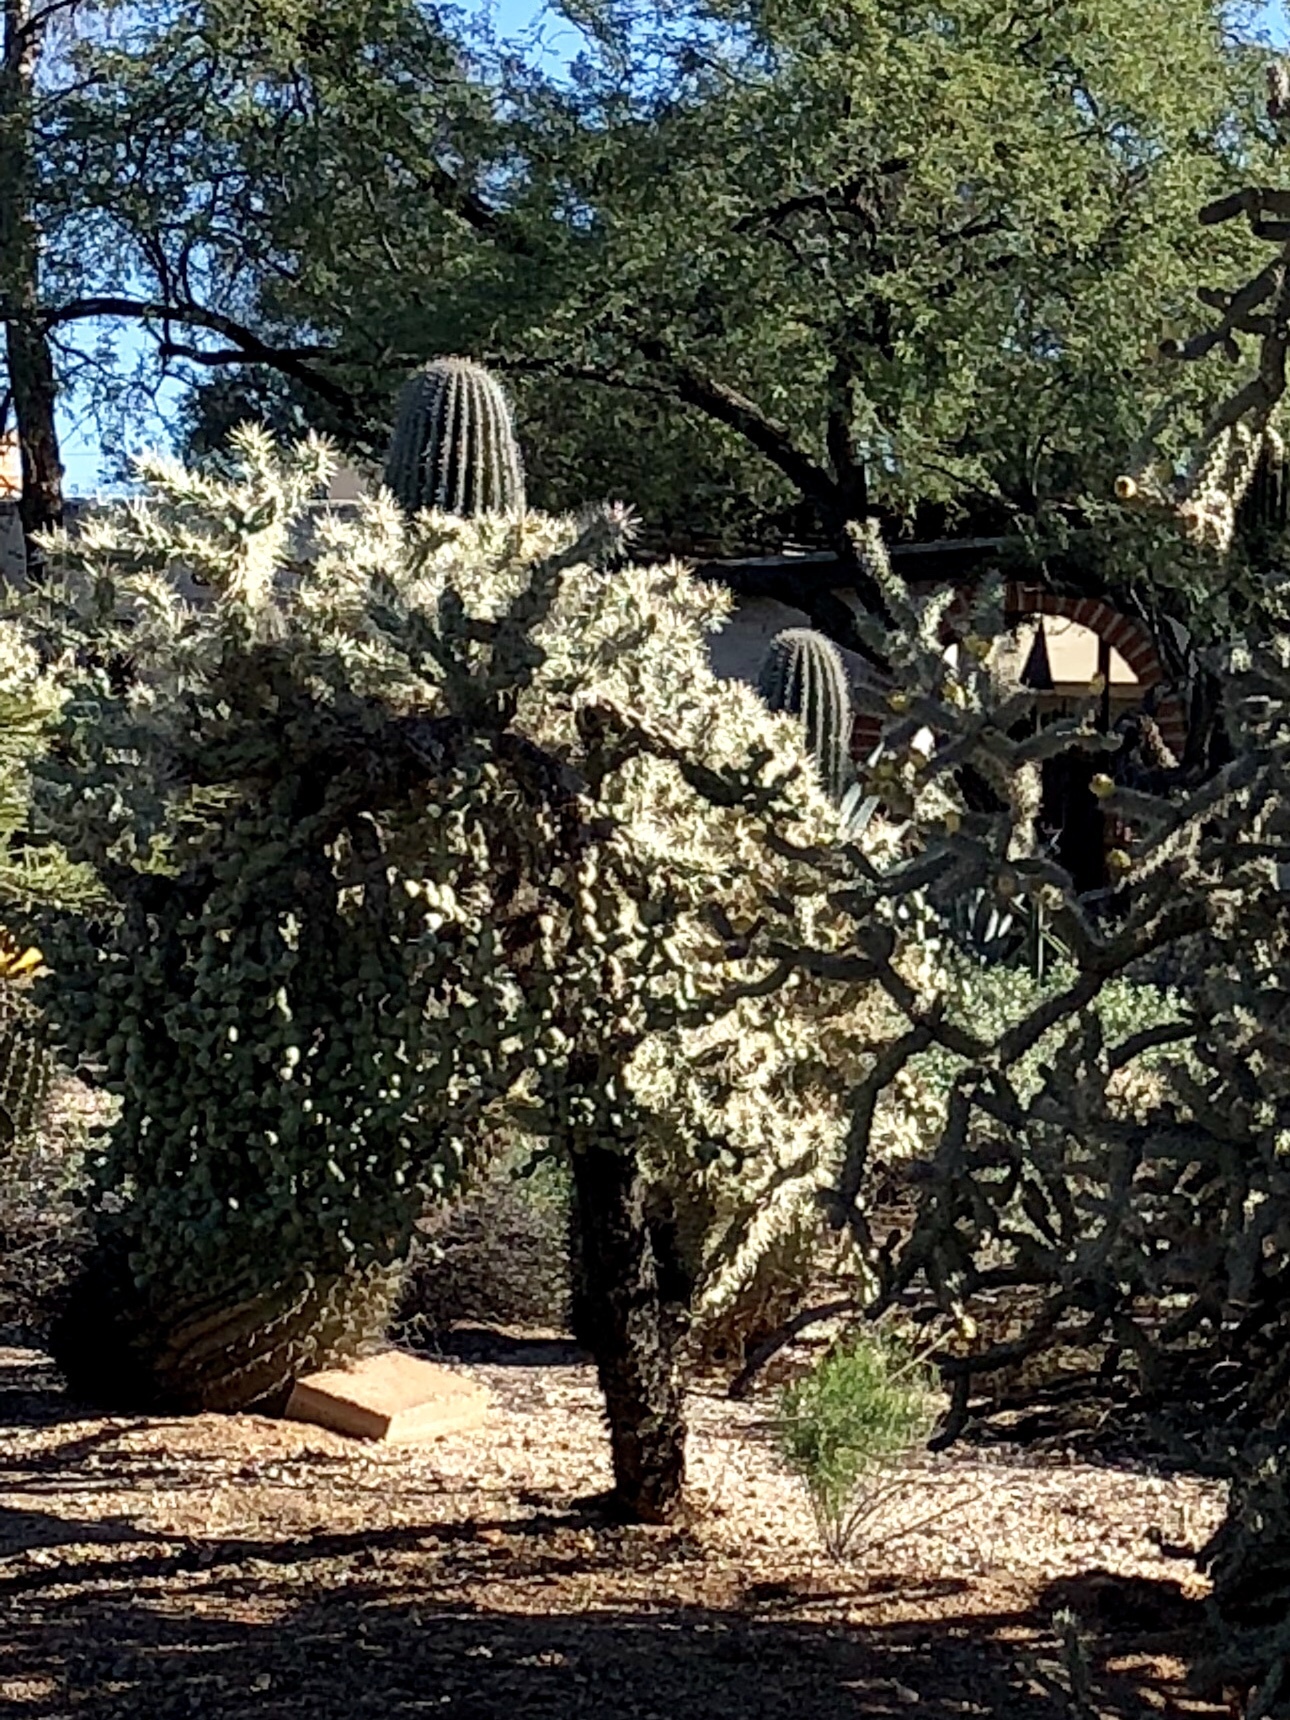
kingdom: Plantae
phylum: Tracheophyta
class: Magnoliopsida
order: Caryophyllales
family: Cactaceae
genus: Cylindropuntia
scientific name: Cylindropuntia fulgida
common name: Jumping cholla
